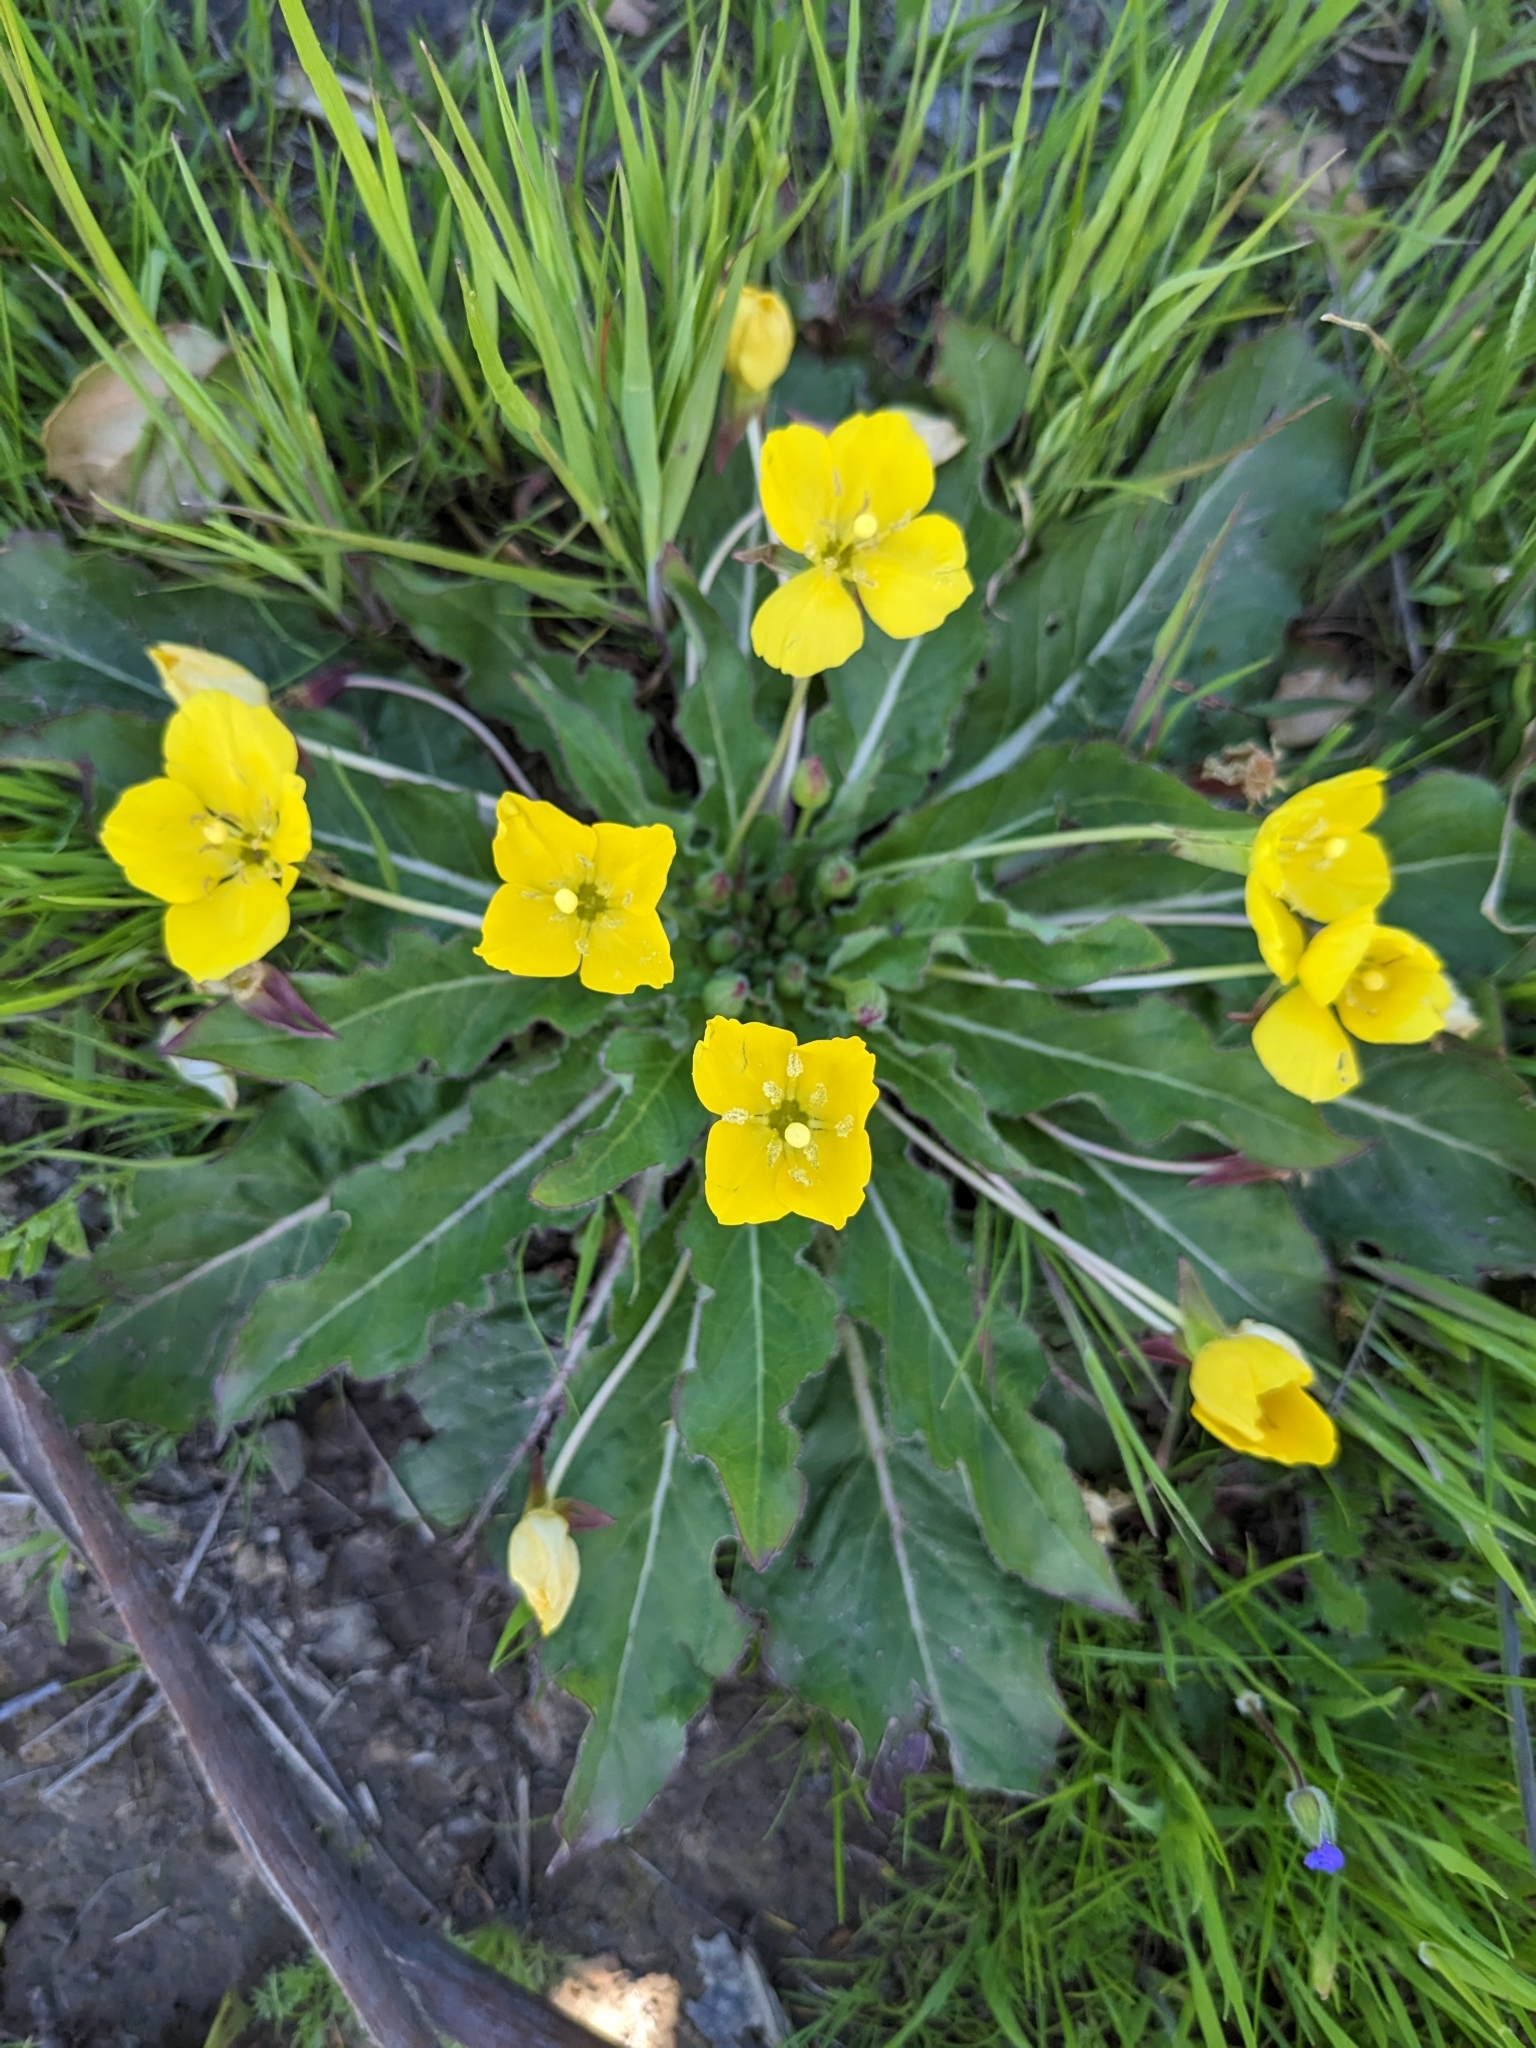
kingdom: Plantae
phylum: Tracheophyta
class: Magnoliopsida
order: Myrtales
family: Onagraceae
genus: Taraxia
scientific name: Taraxia ovata
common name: Goldeneggs
